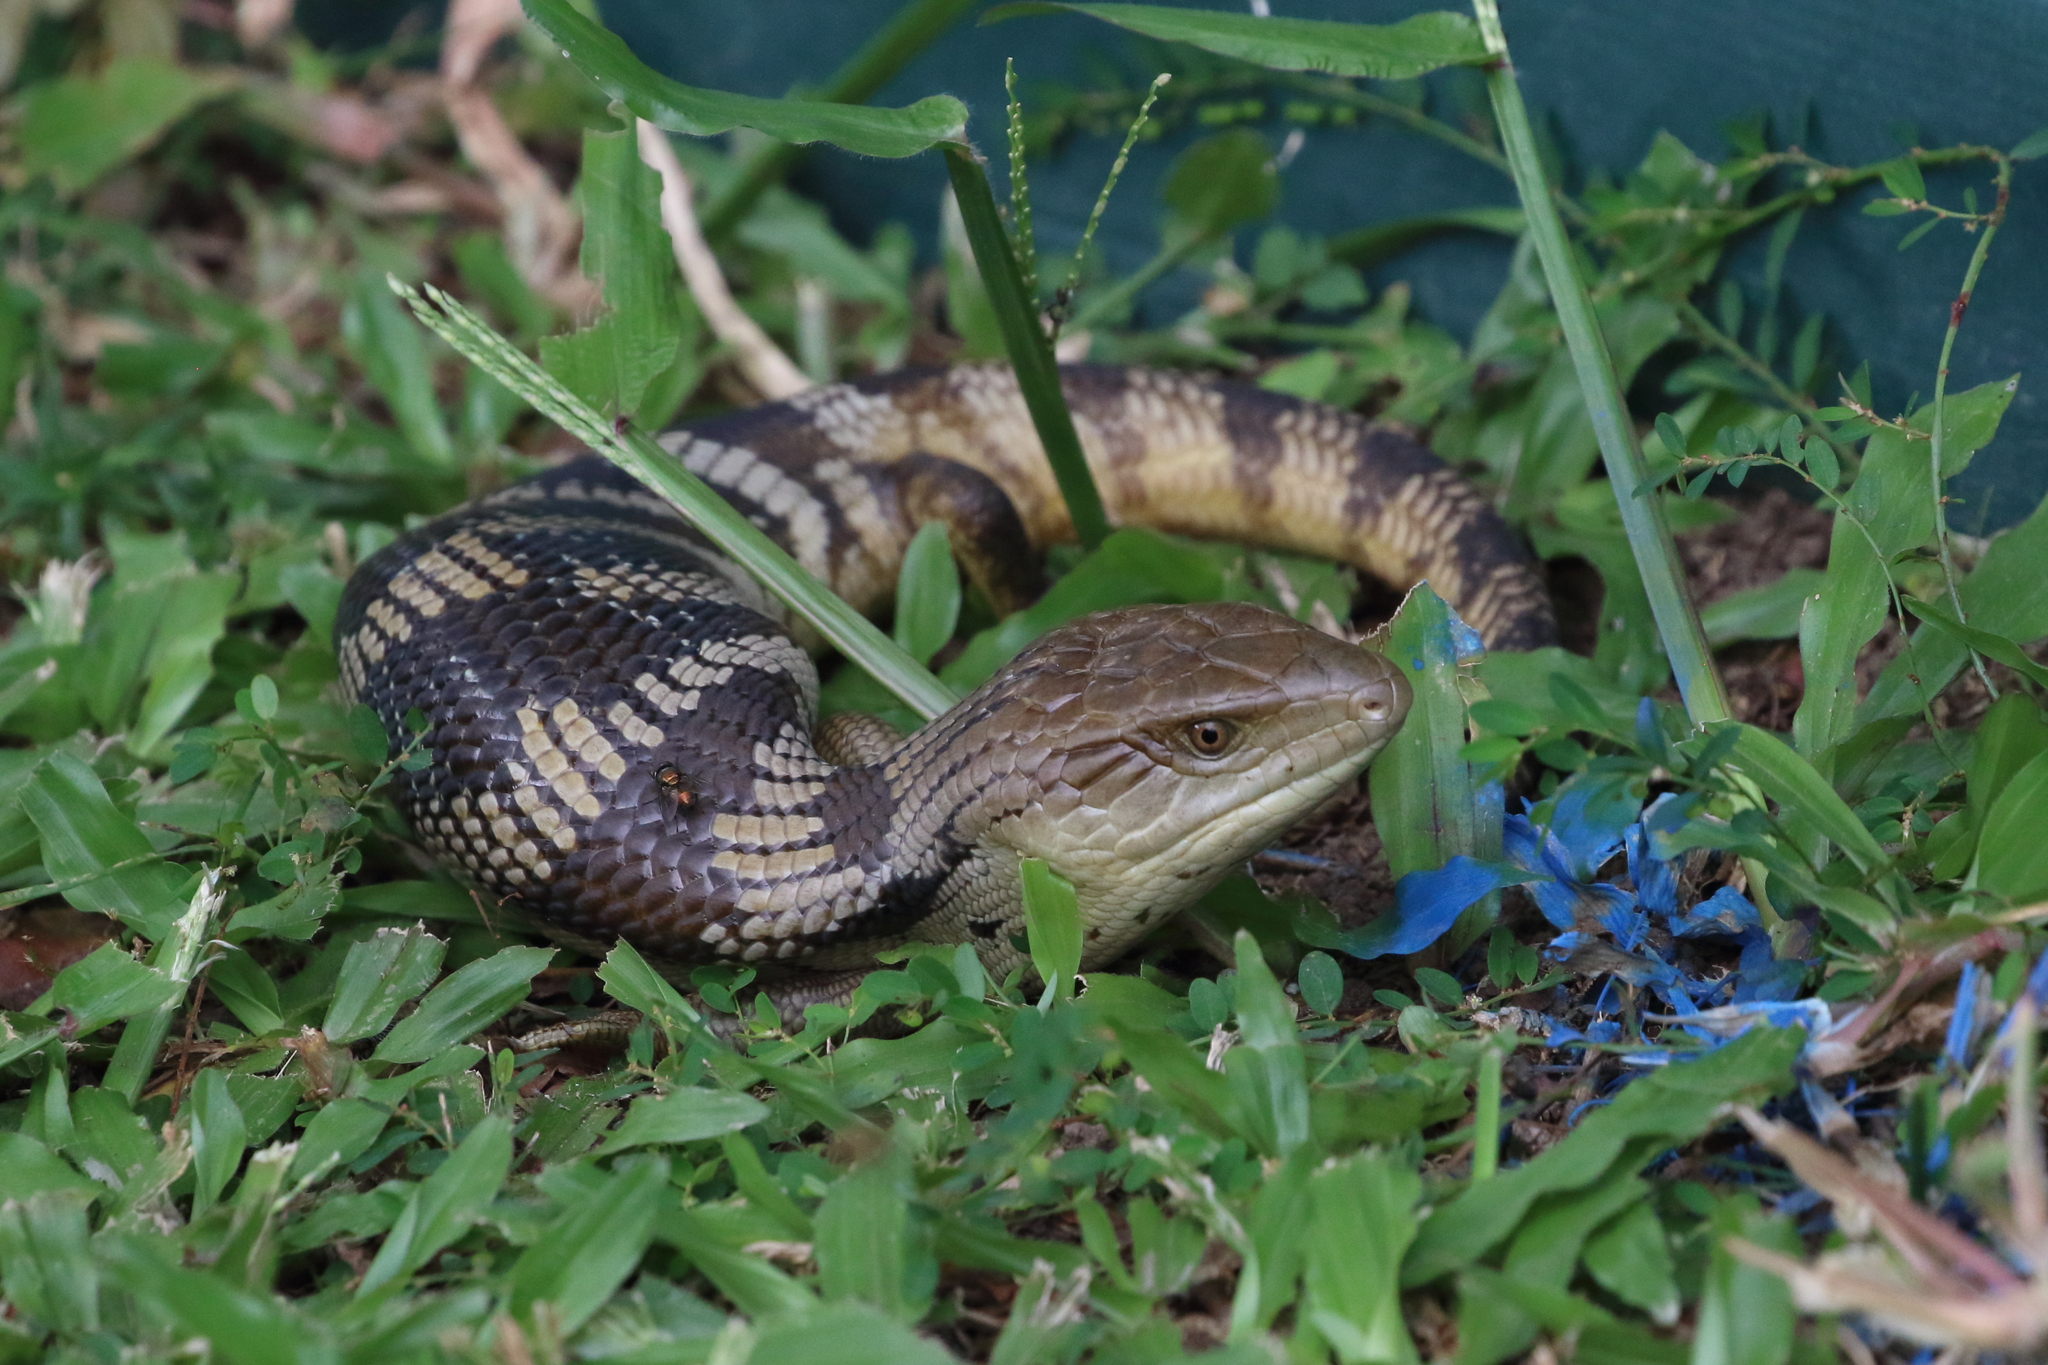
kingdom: Animalia
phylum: Chordata
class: Squamata
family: Scincidae
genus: Tiliqua
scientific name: Tiliqua scincoides
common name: Common bluetongue
